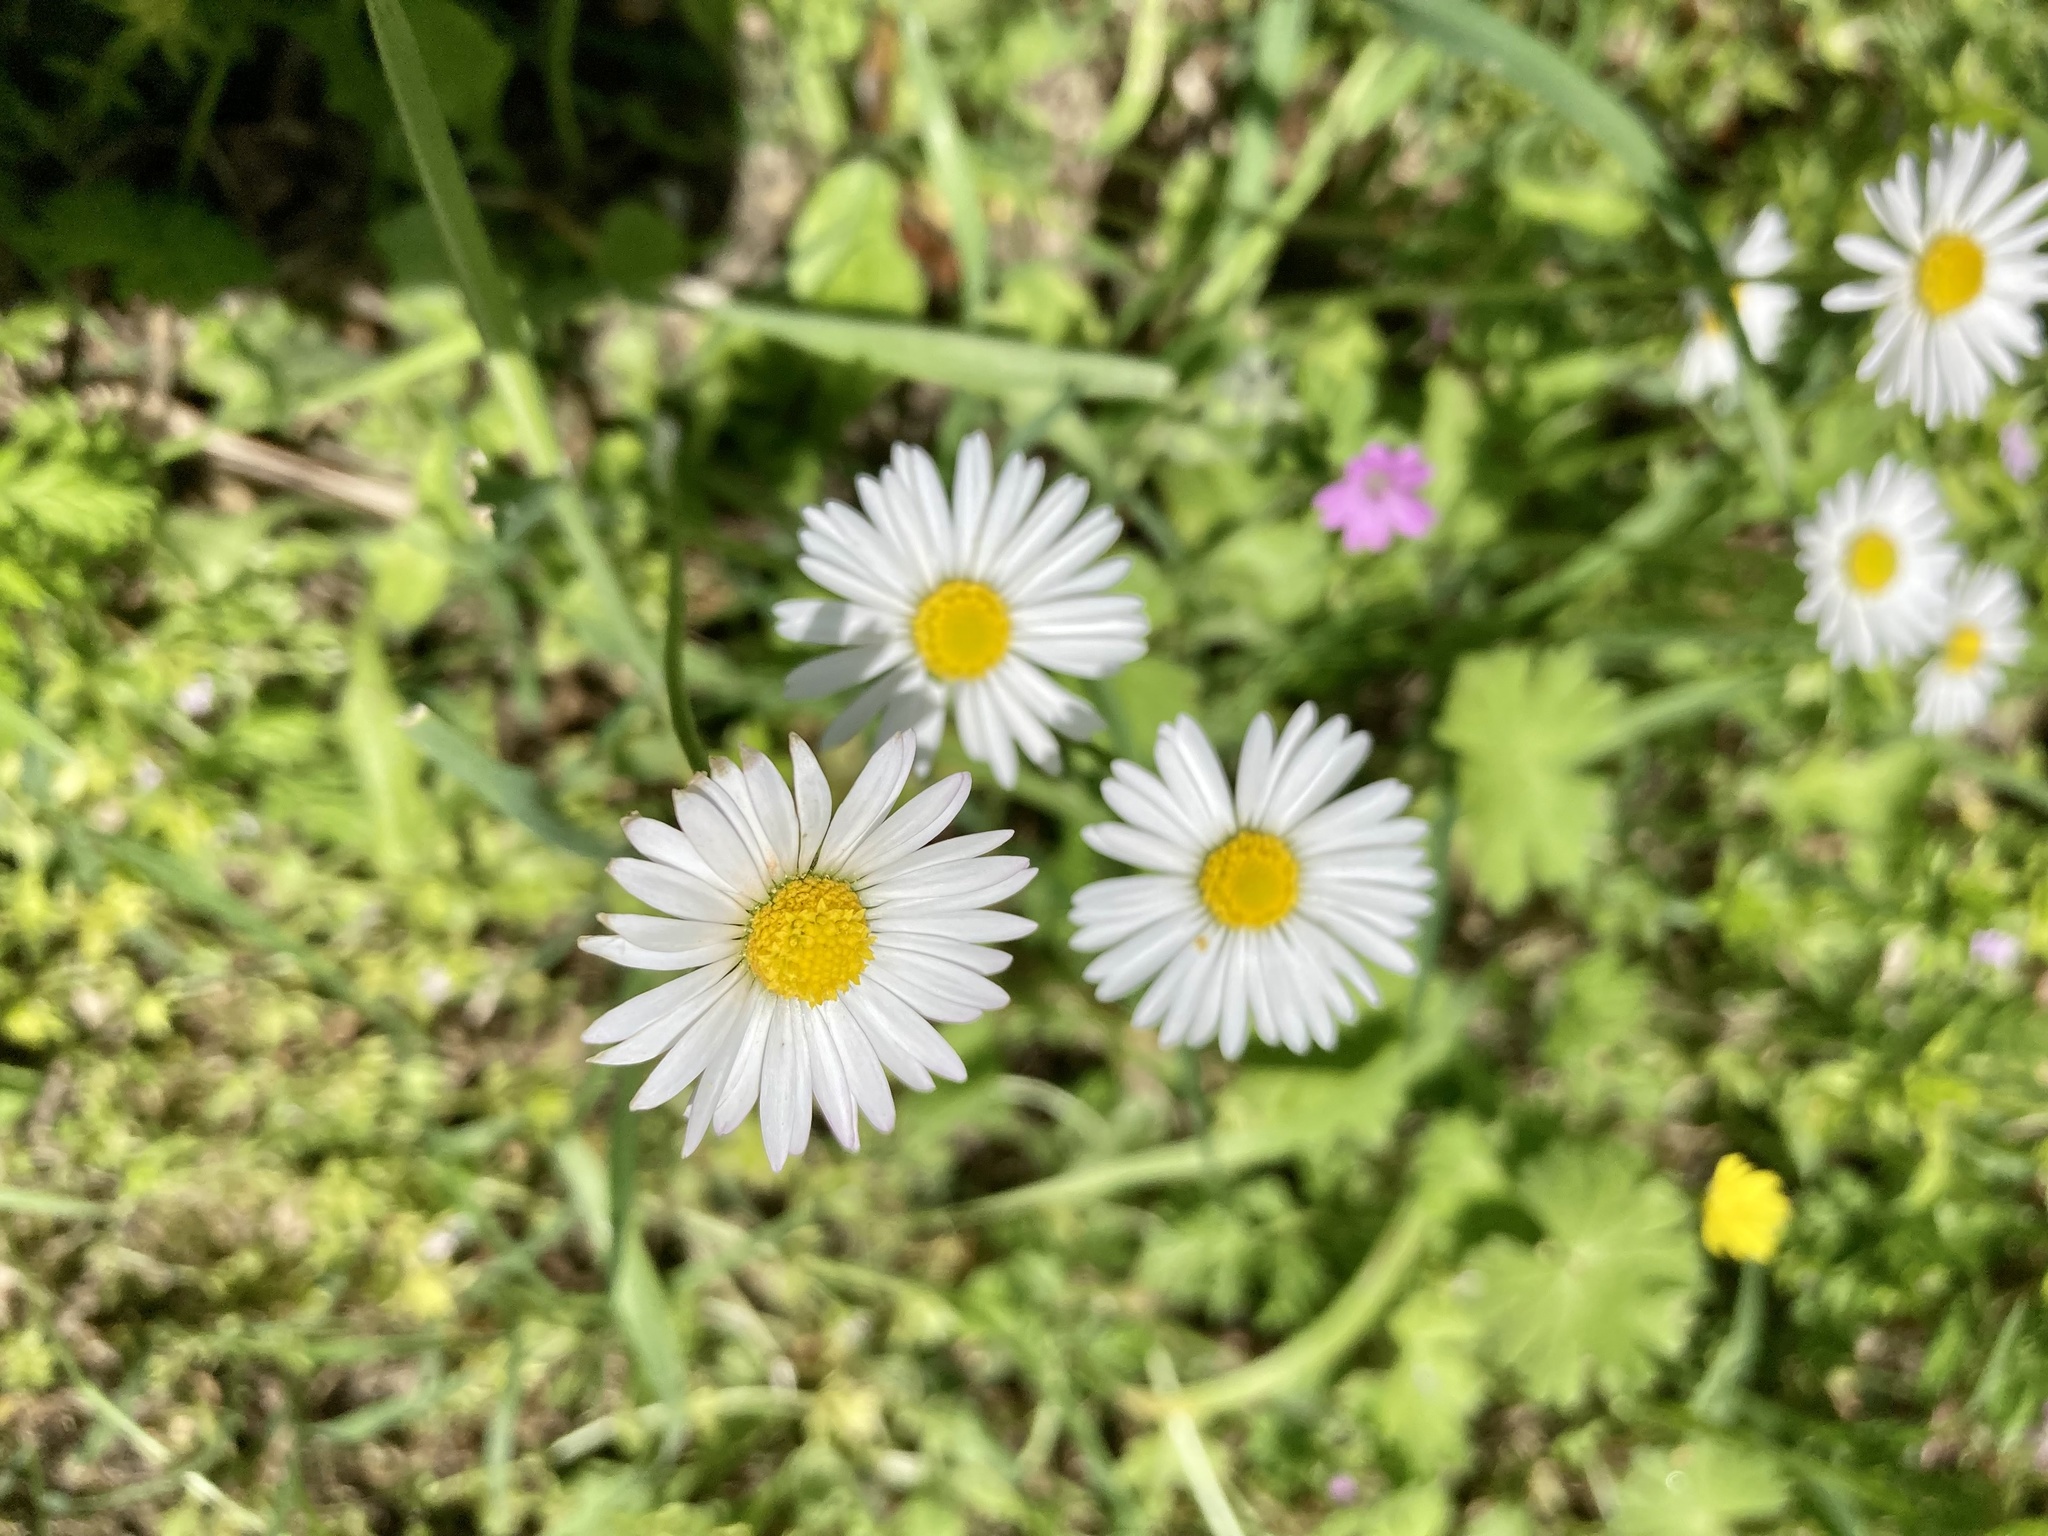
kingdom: Plantae
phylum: Tracheophyta
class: Magnoliopsida
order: Asterales
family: Asteraceae
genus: Bellis
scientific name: Bellis perennis
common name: Lawndaisy
